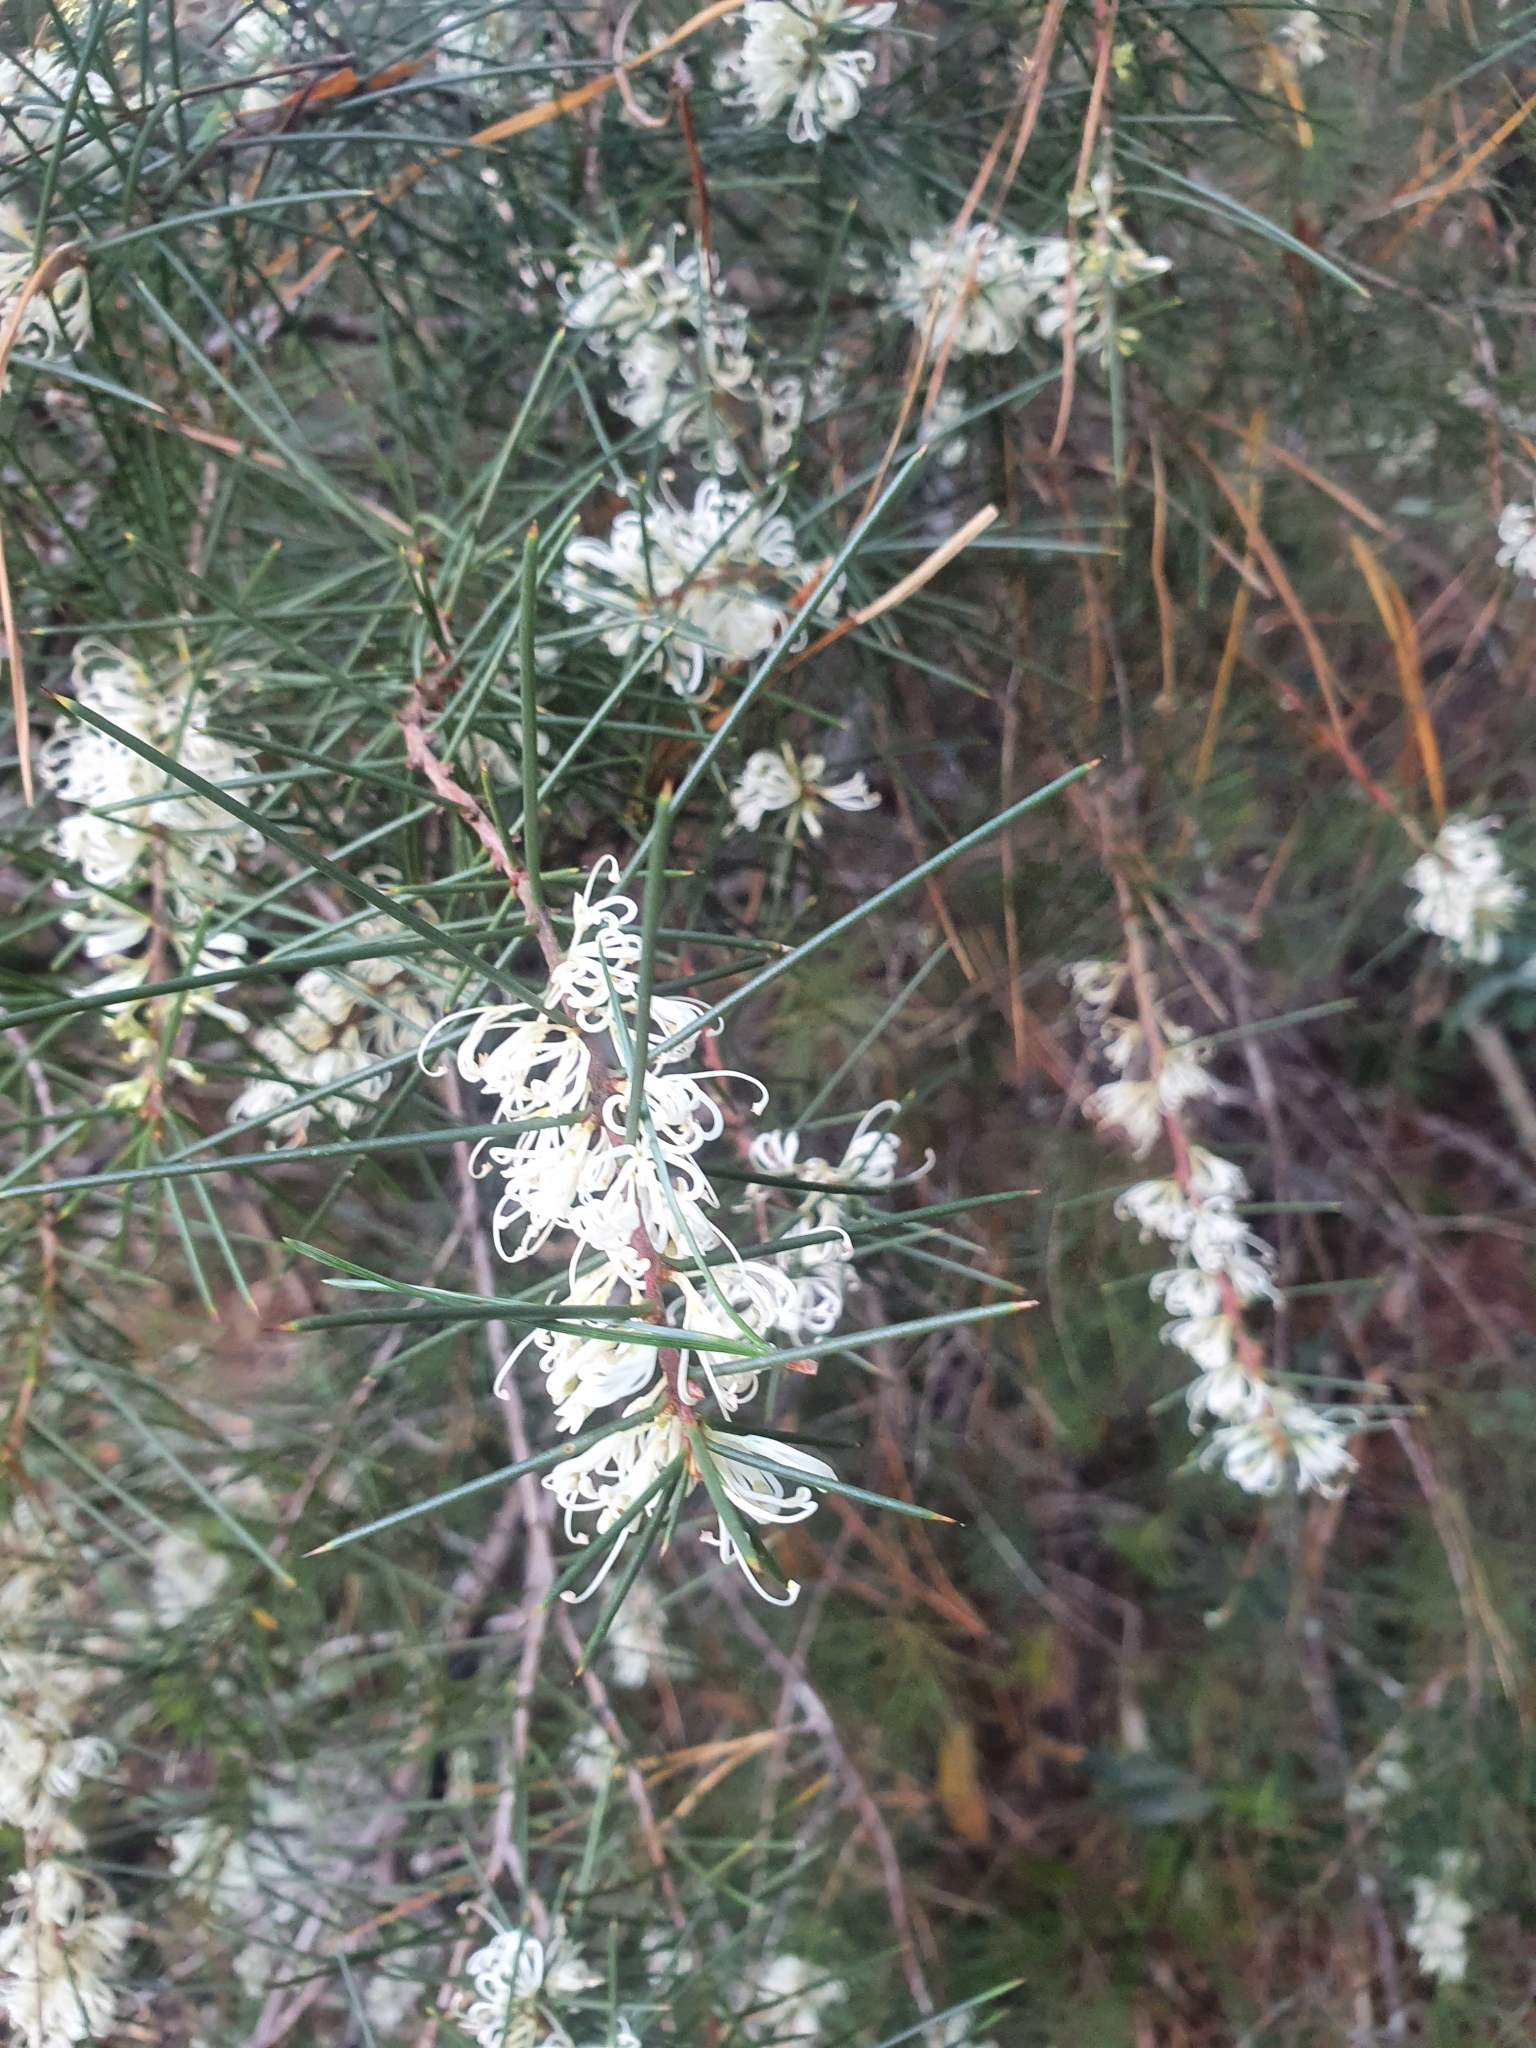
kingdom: Plantae
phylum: Tracheophyta
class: Magnoliopsida
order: Proteales
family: Proteaceae
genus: Hakea
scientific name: Hakea sericea
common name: Needle bush
